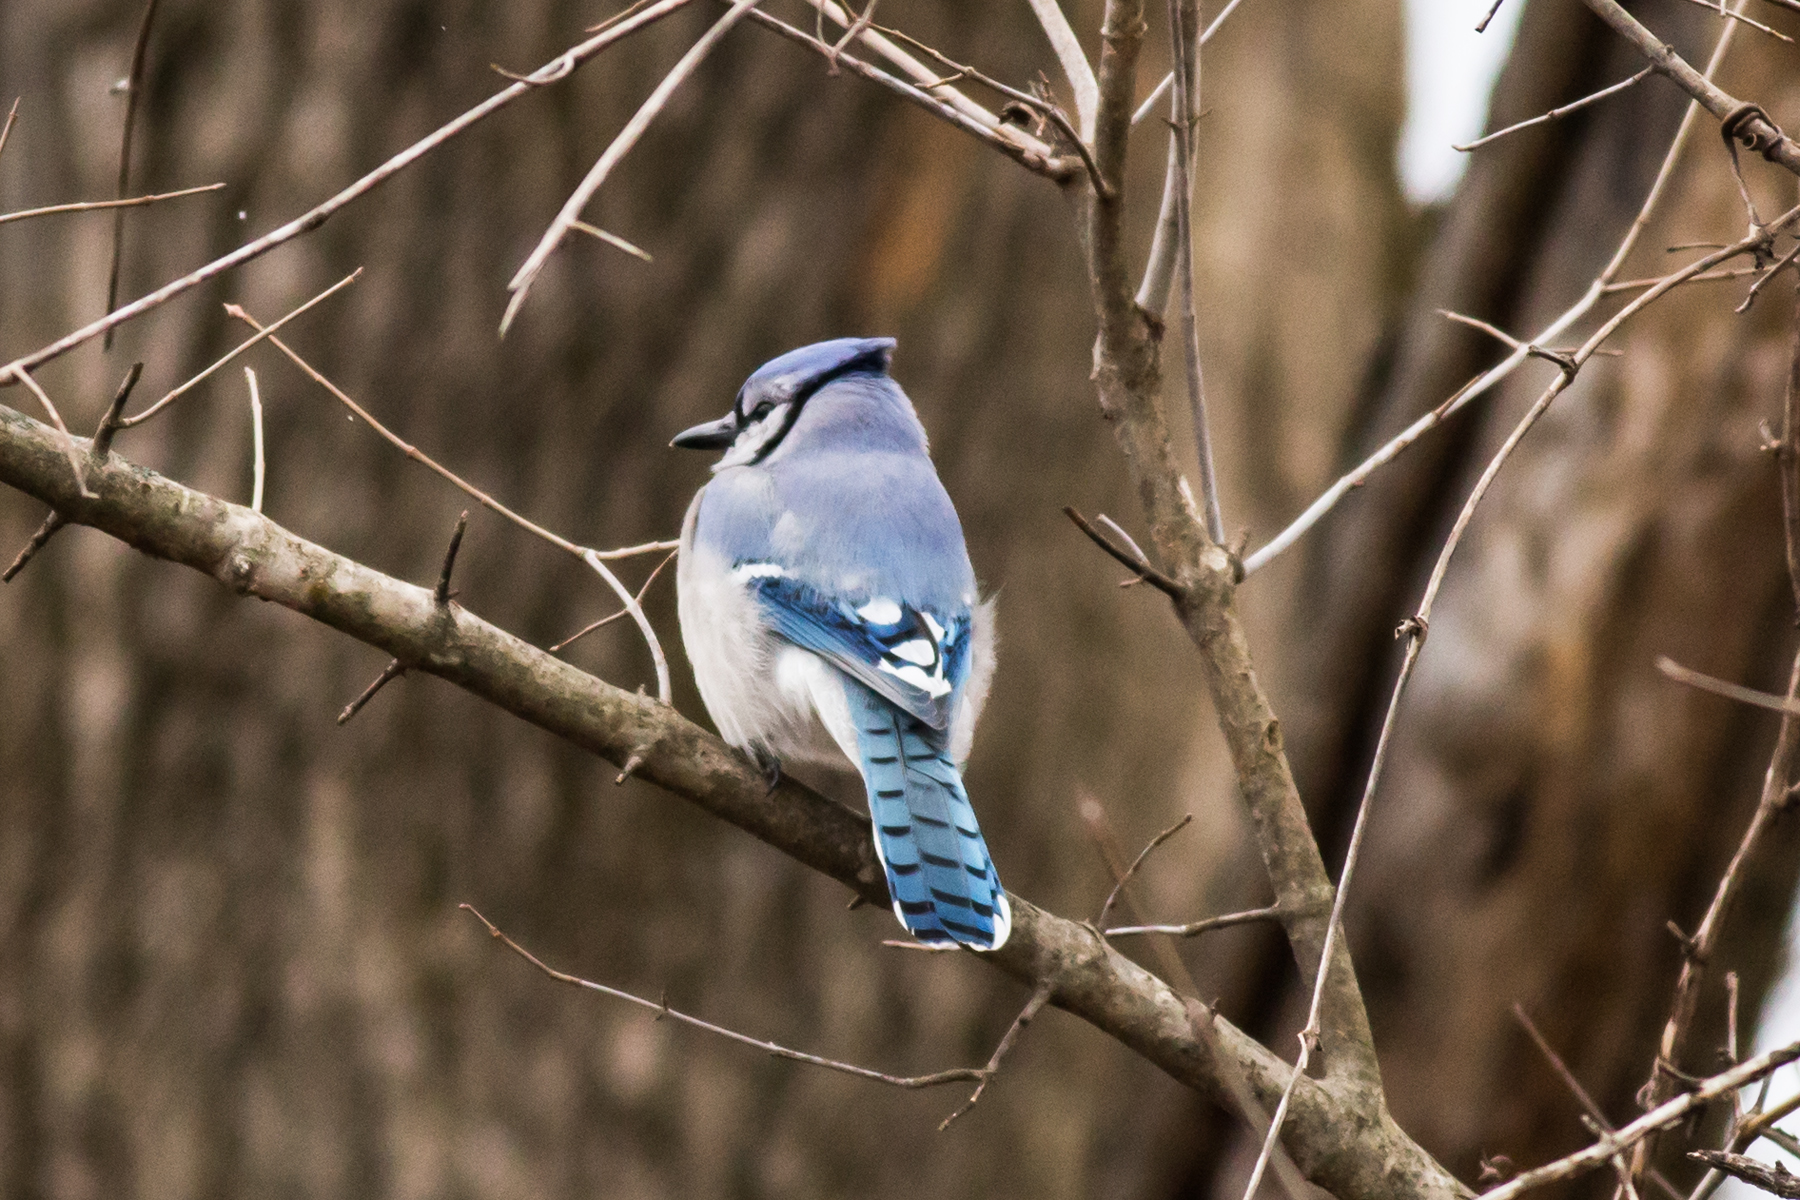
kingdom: Animalia
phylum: Chordata
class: Aves
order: Passeriformes
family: Corvidae
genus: Cyanocitta
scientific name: Cyanocitta cristata
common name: Blue jay
